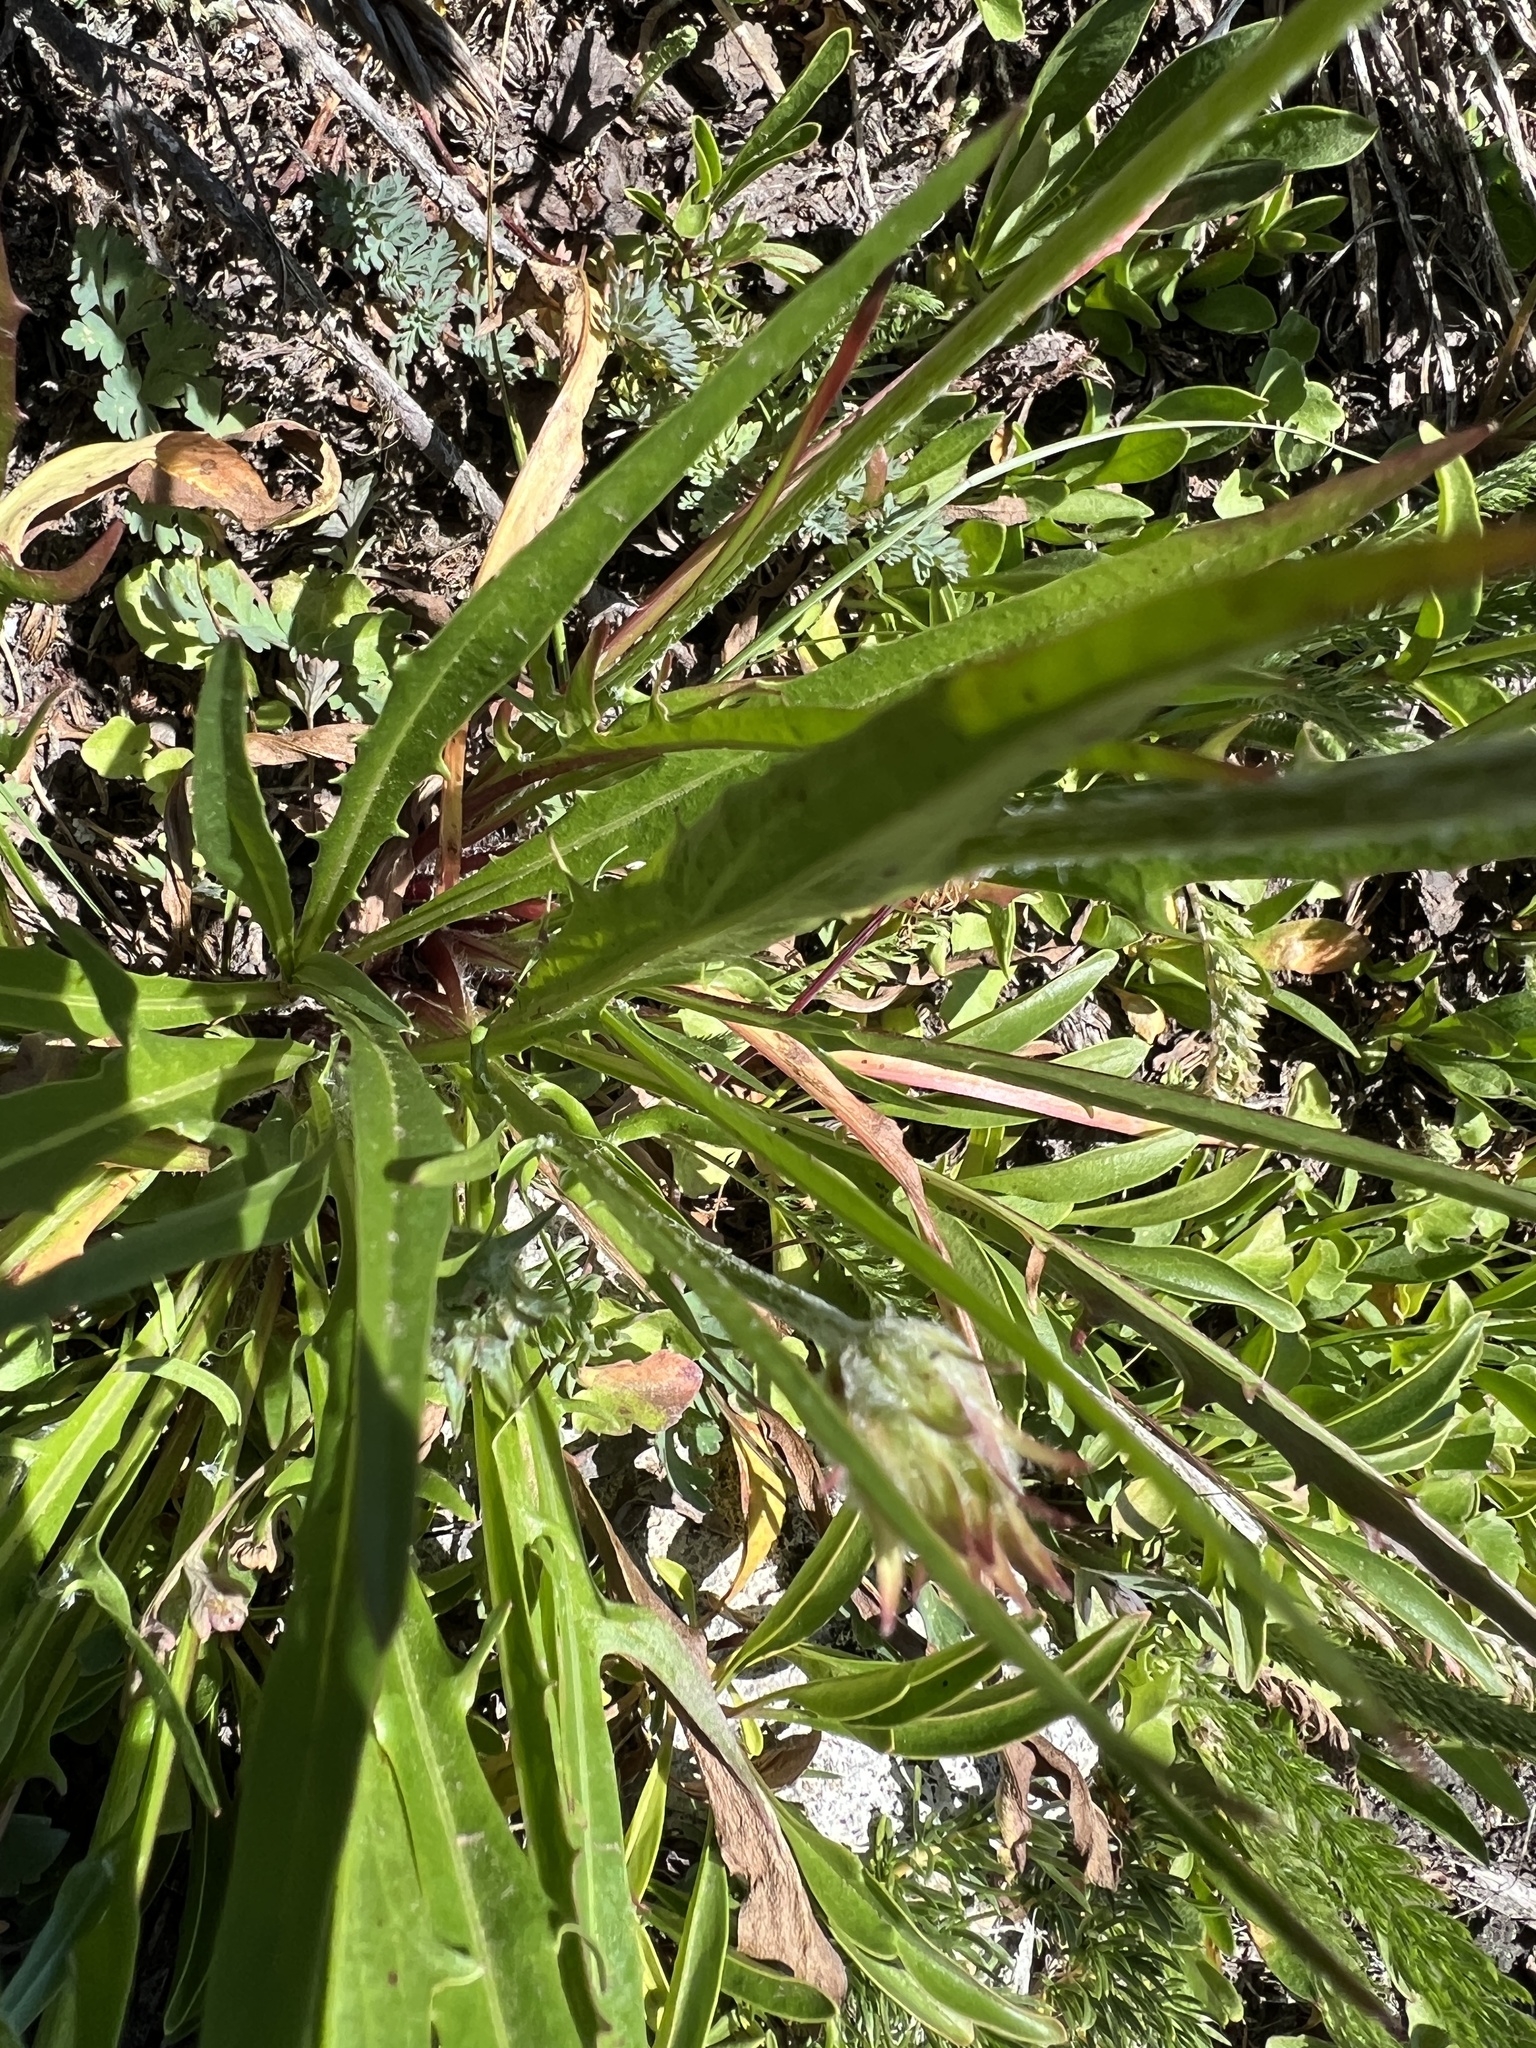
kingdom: Plantae
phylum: Tracheophyta
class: Magnoliopsida
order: Asterales
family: Asteraceae
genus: Agoseris
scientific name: Agoseris aurantiaca
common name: Mountain agoseris
